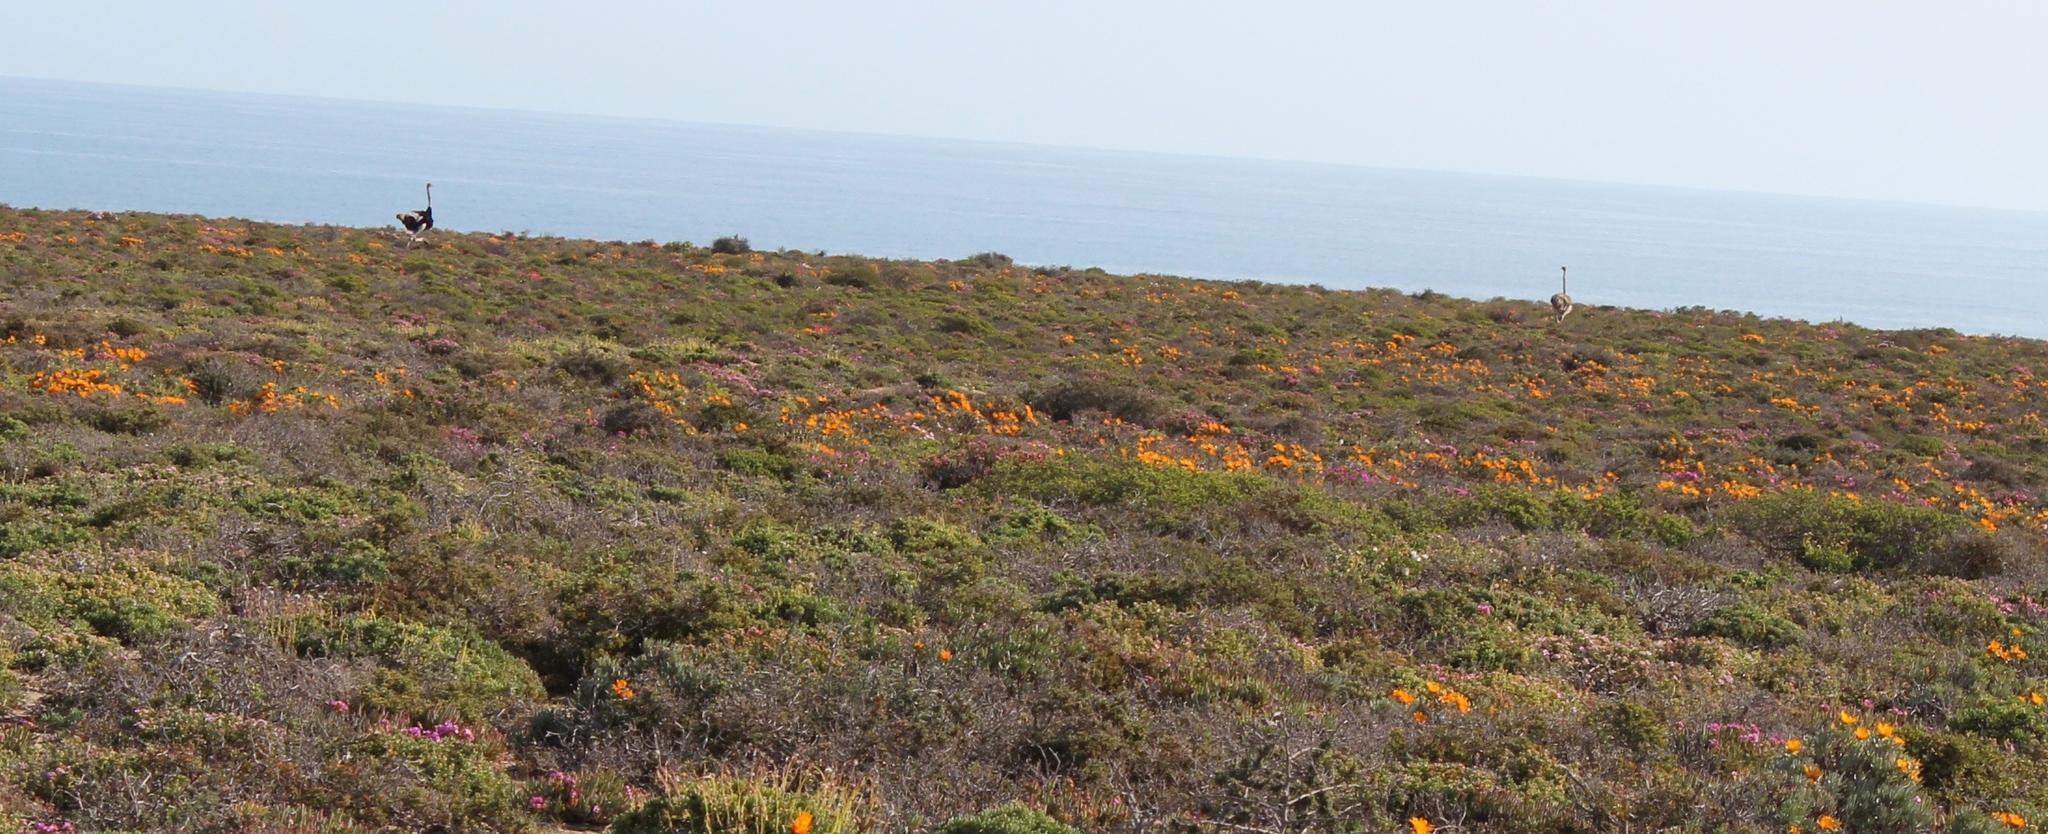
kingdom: Animalia
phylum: Chordata
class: Aves
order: Struthioniformes
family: Struthionidae
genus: Struthio
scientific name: Struthio camelus
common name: Common ostrich
